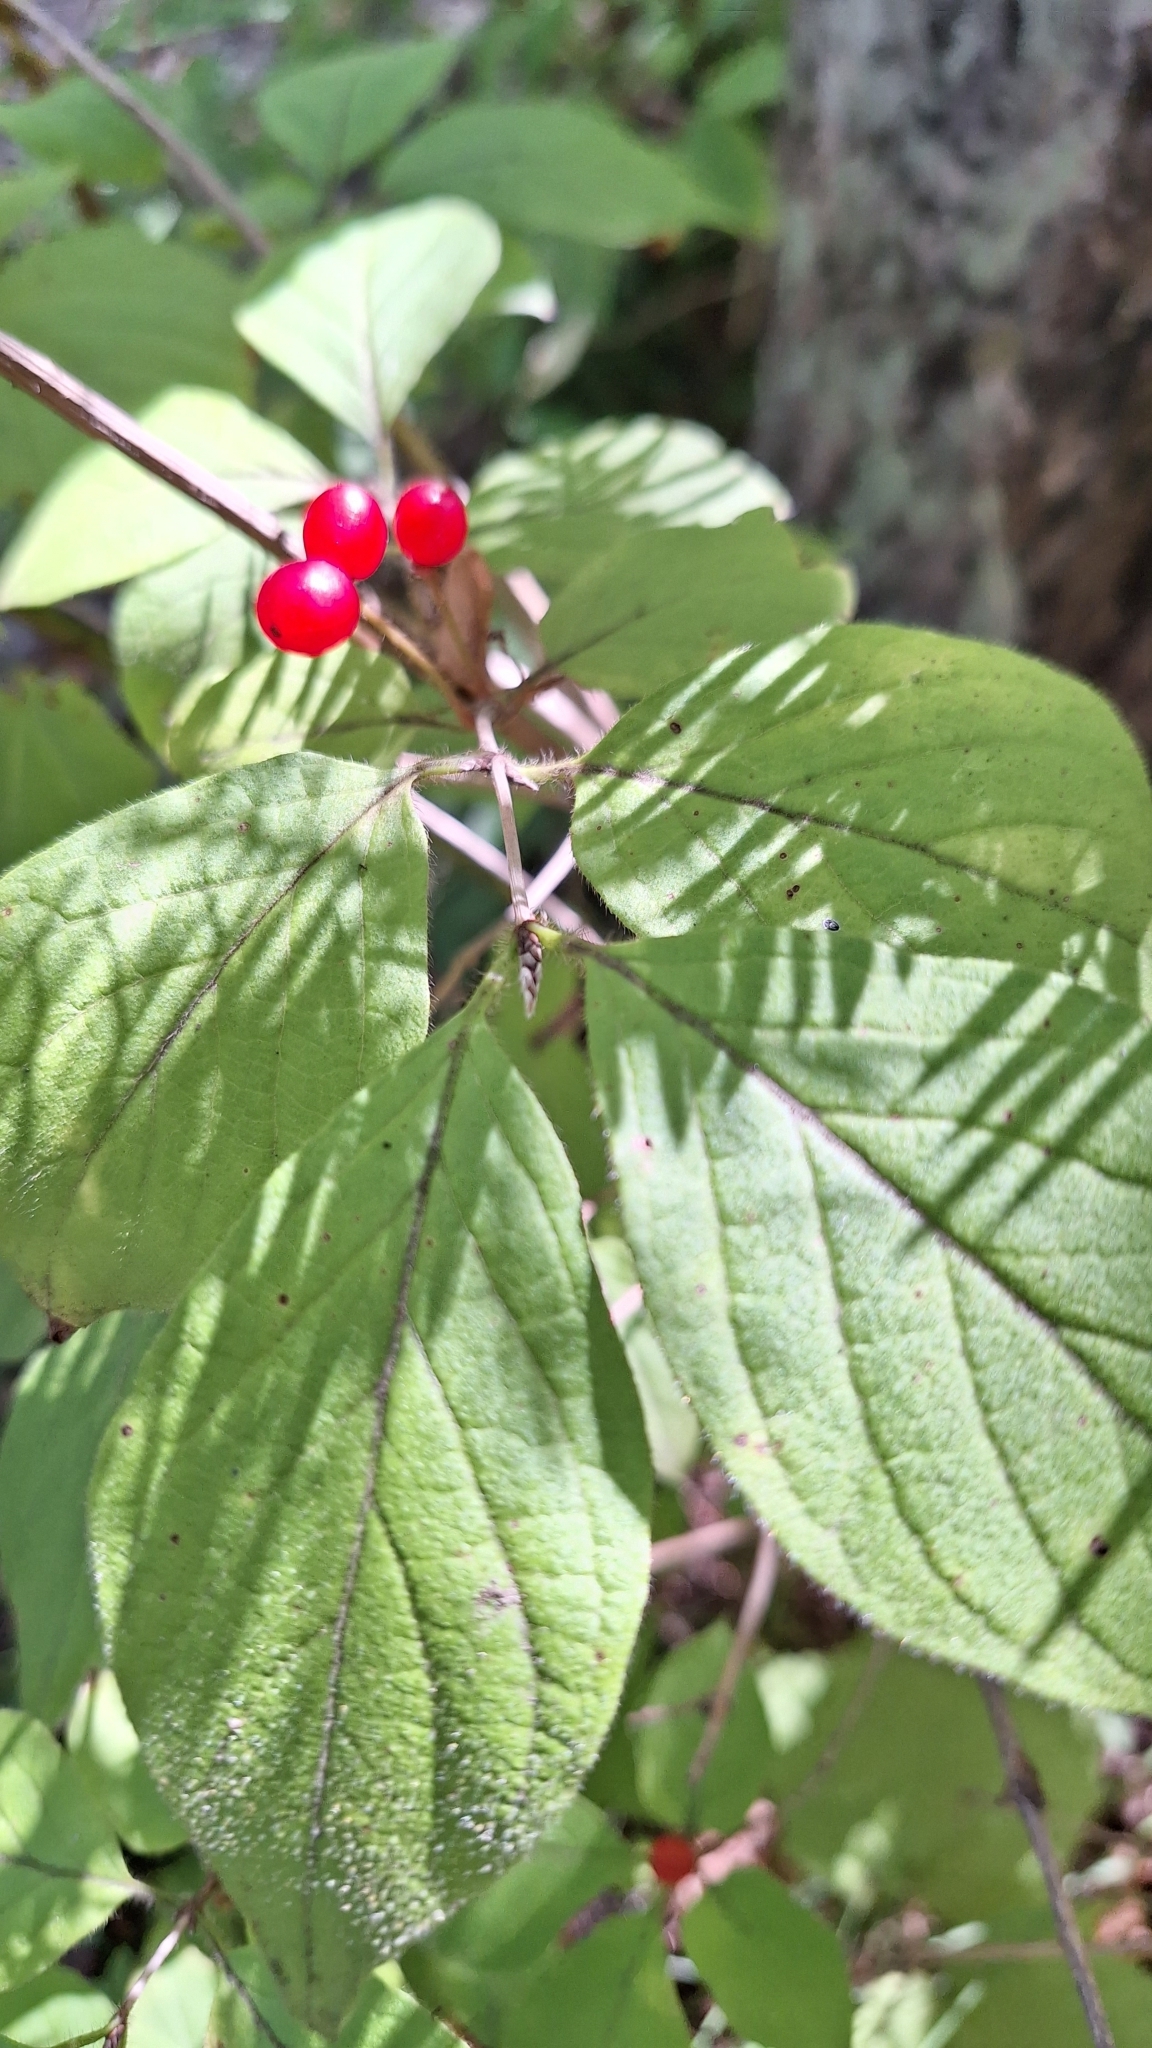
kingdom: Plantae
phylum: Tracheophyta
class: Magnoliopsida
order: Dipsacales
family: Caprifoliaceae
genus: Lonicera
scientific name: Lonicera chrysantha
